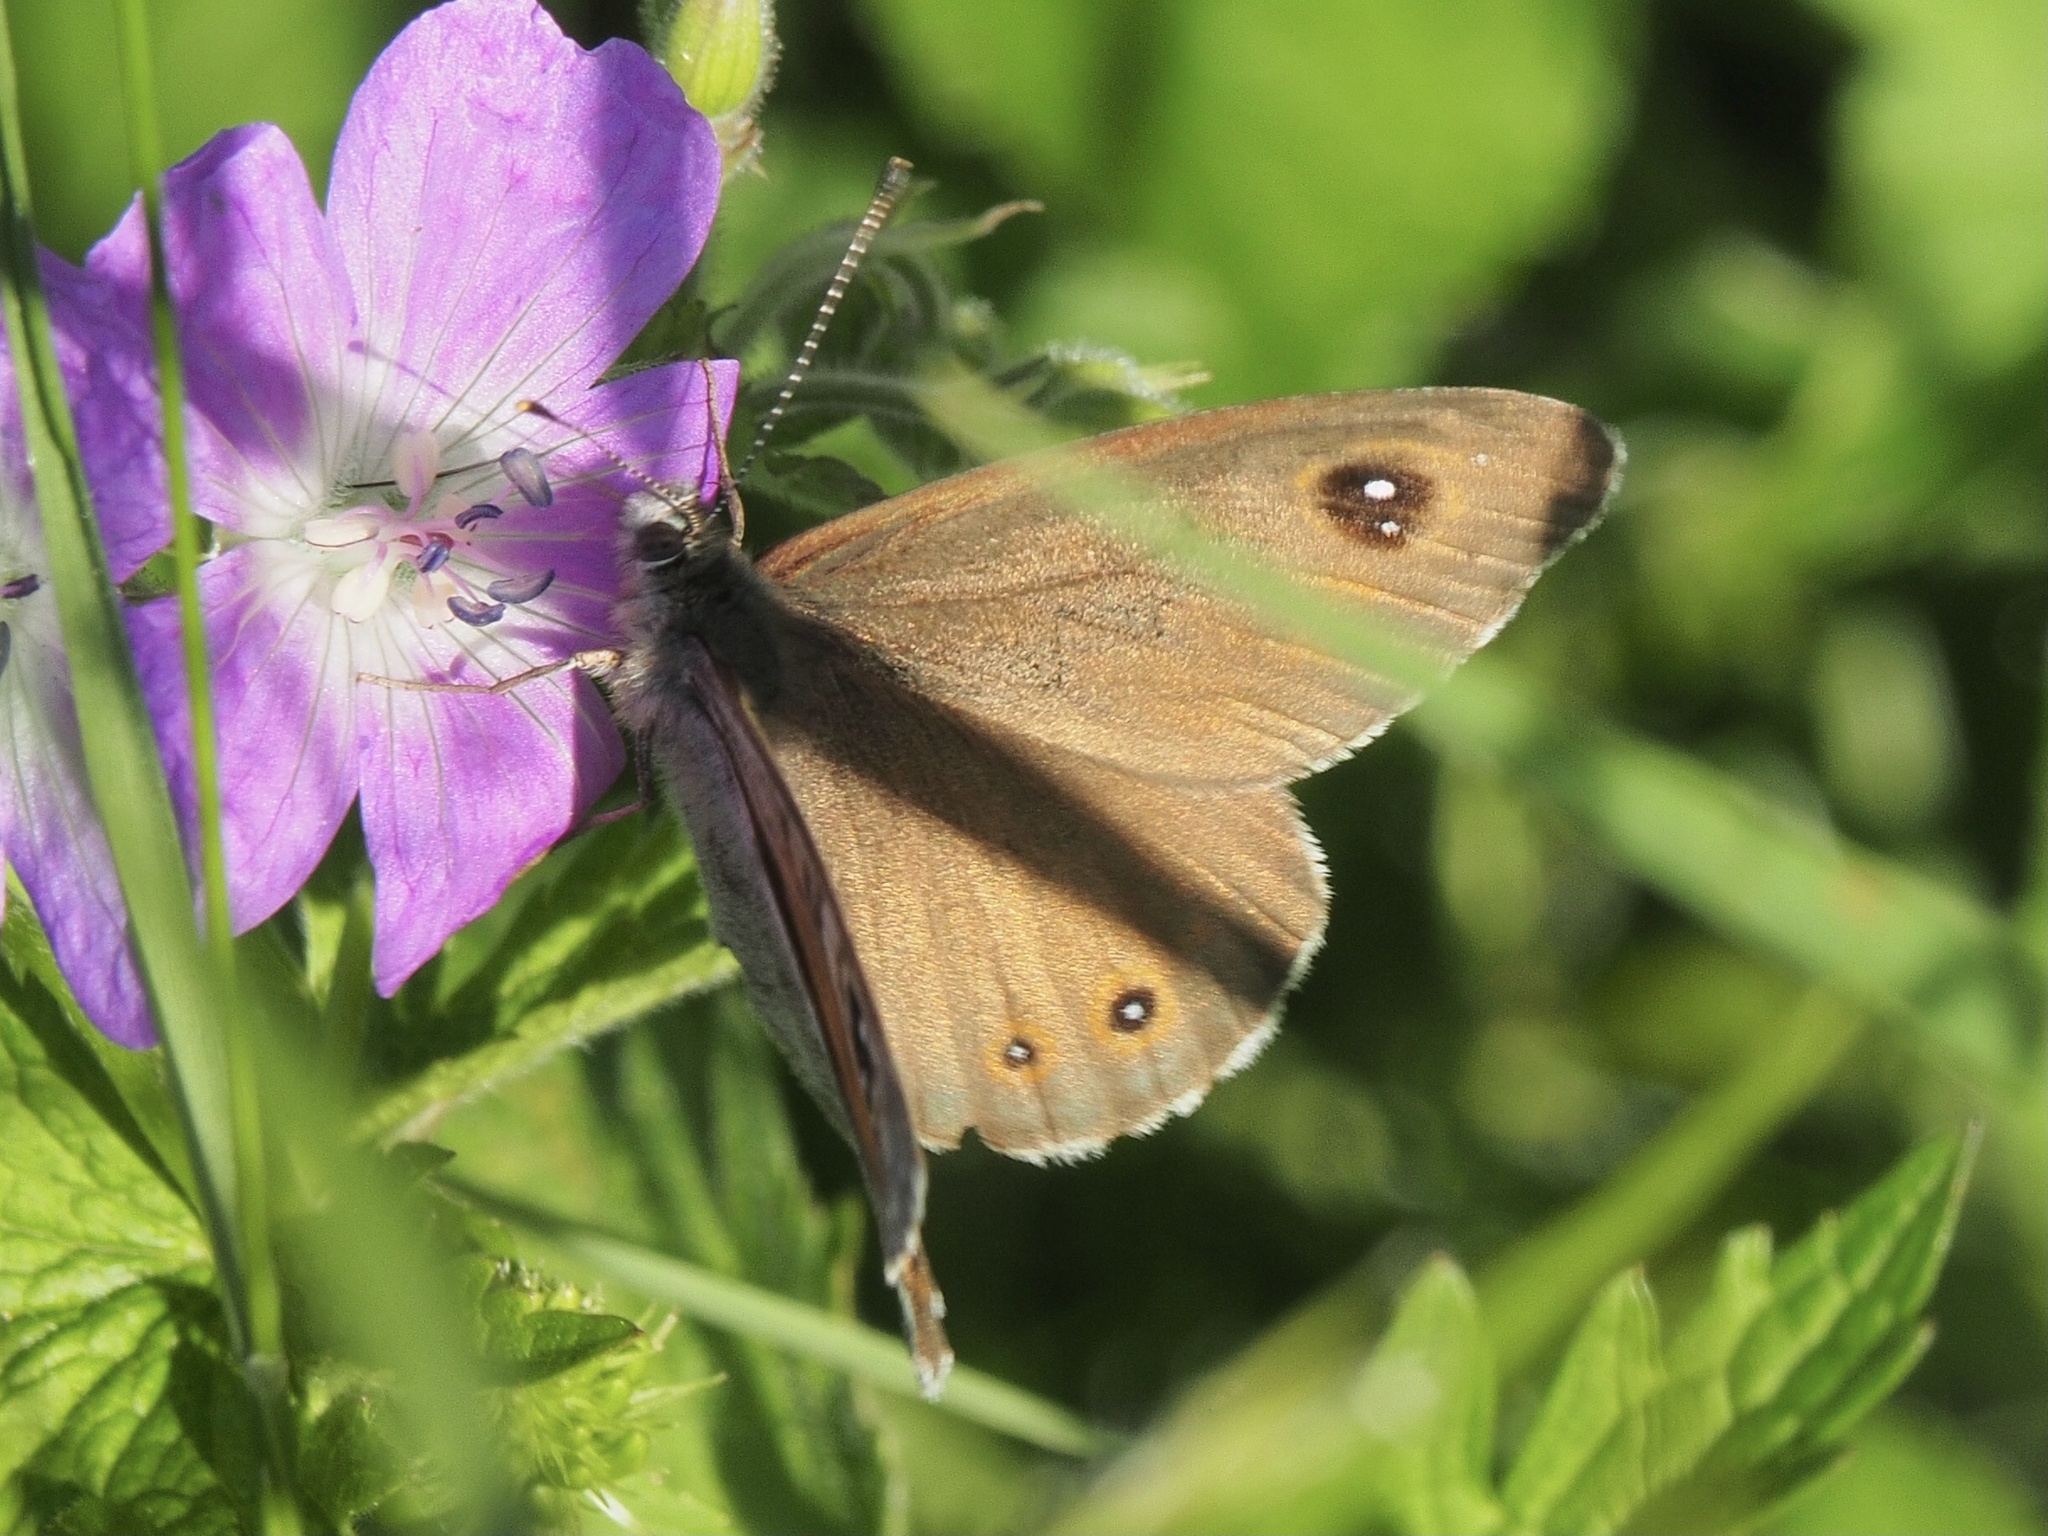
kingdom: Animalia
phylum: Arthropoda
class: Insecta
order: Lepidoptera
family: Nymphalidae
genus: Pararge
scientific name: Pararge Lasiommata maera
